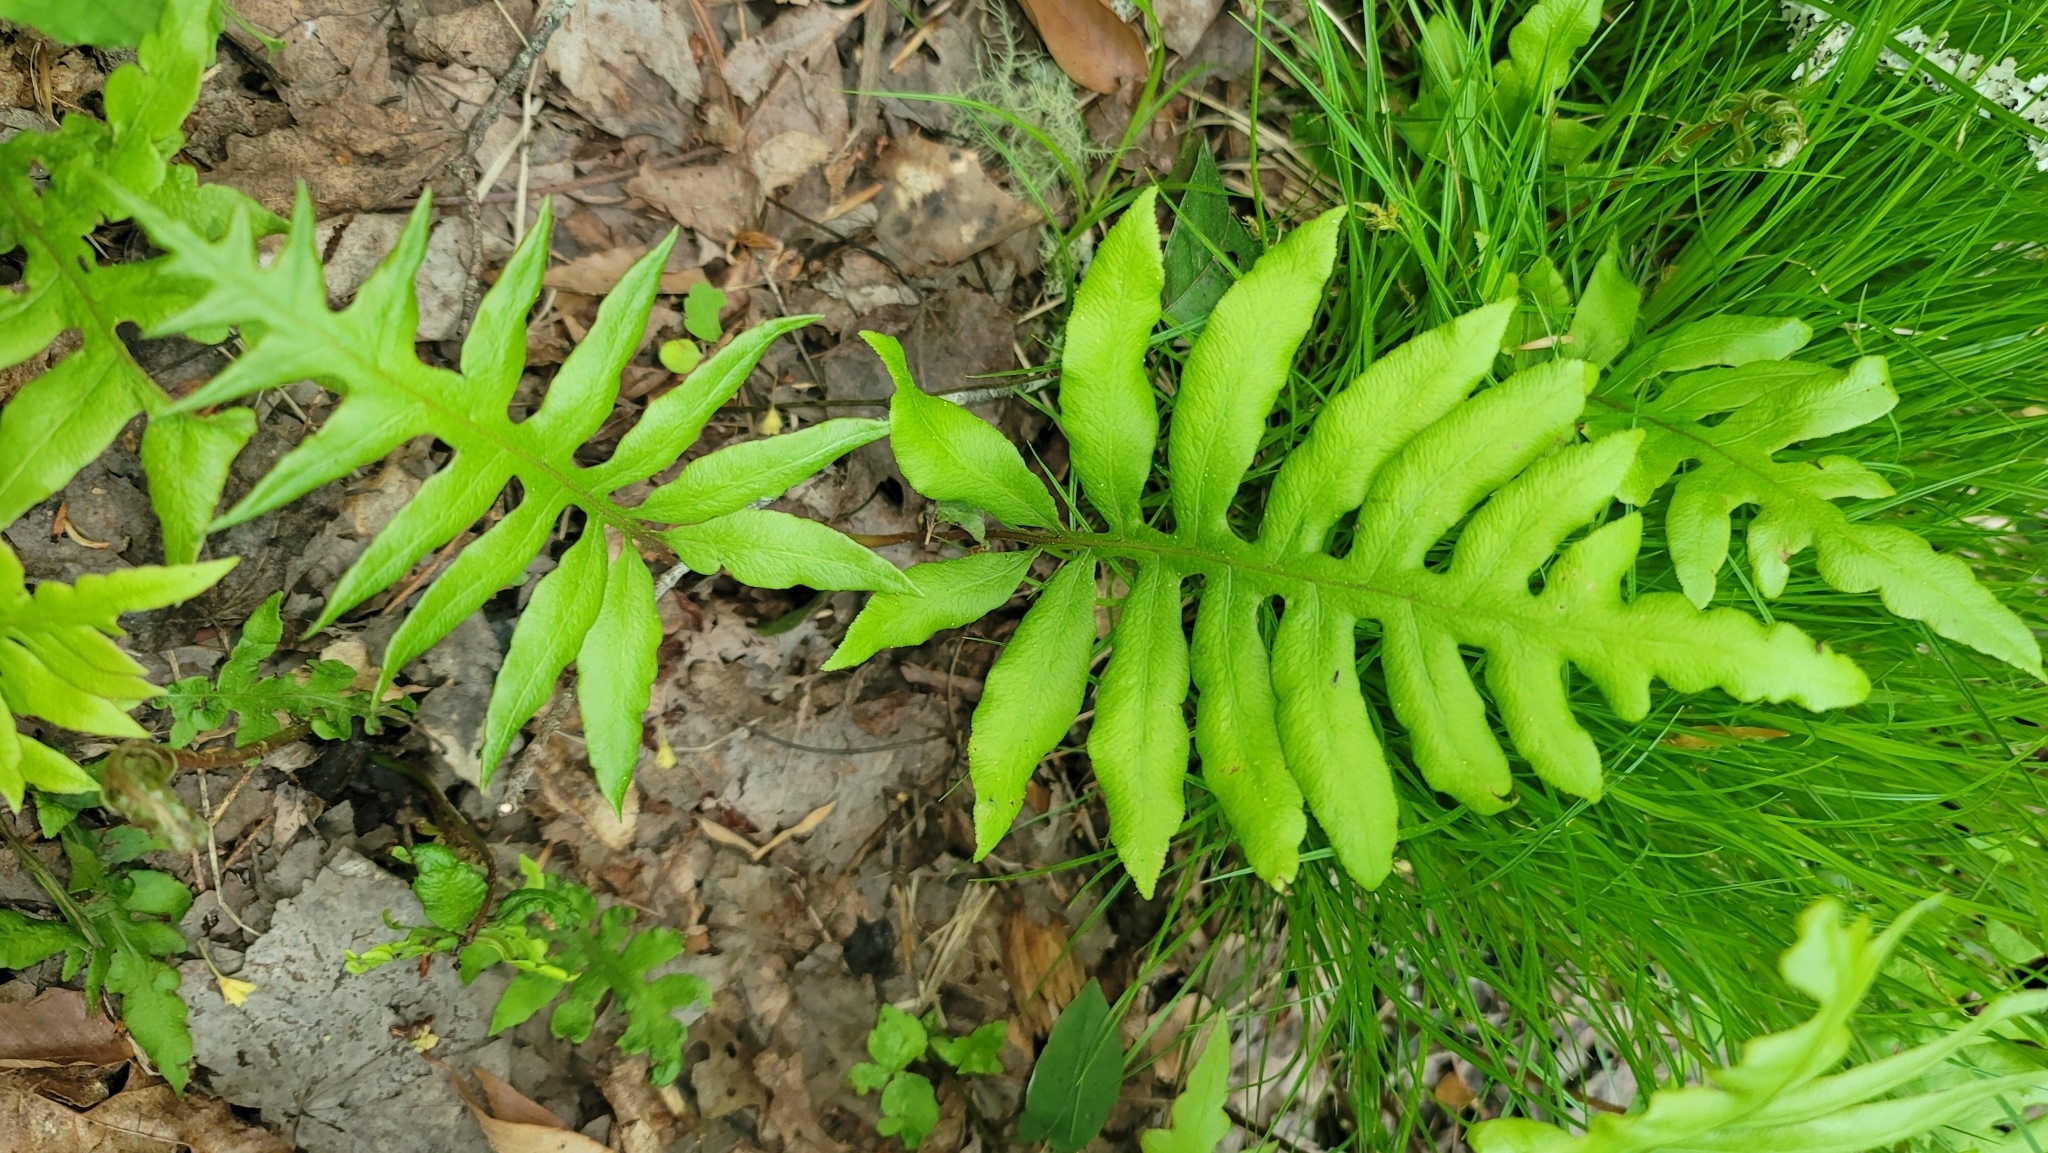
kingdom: Plantae
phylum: Tracheophyta
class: Polypodiopsida
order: Polypodiales
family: Blechnaceae
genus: Lorinseria
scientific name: Lorinseria areolata
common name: Dwarf chain fern
